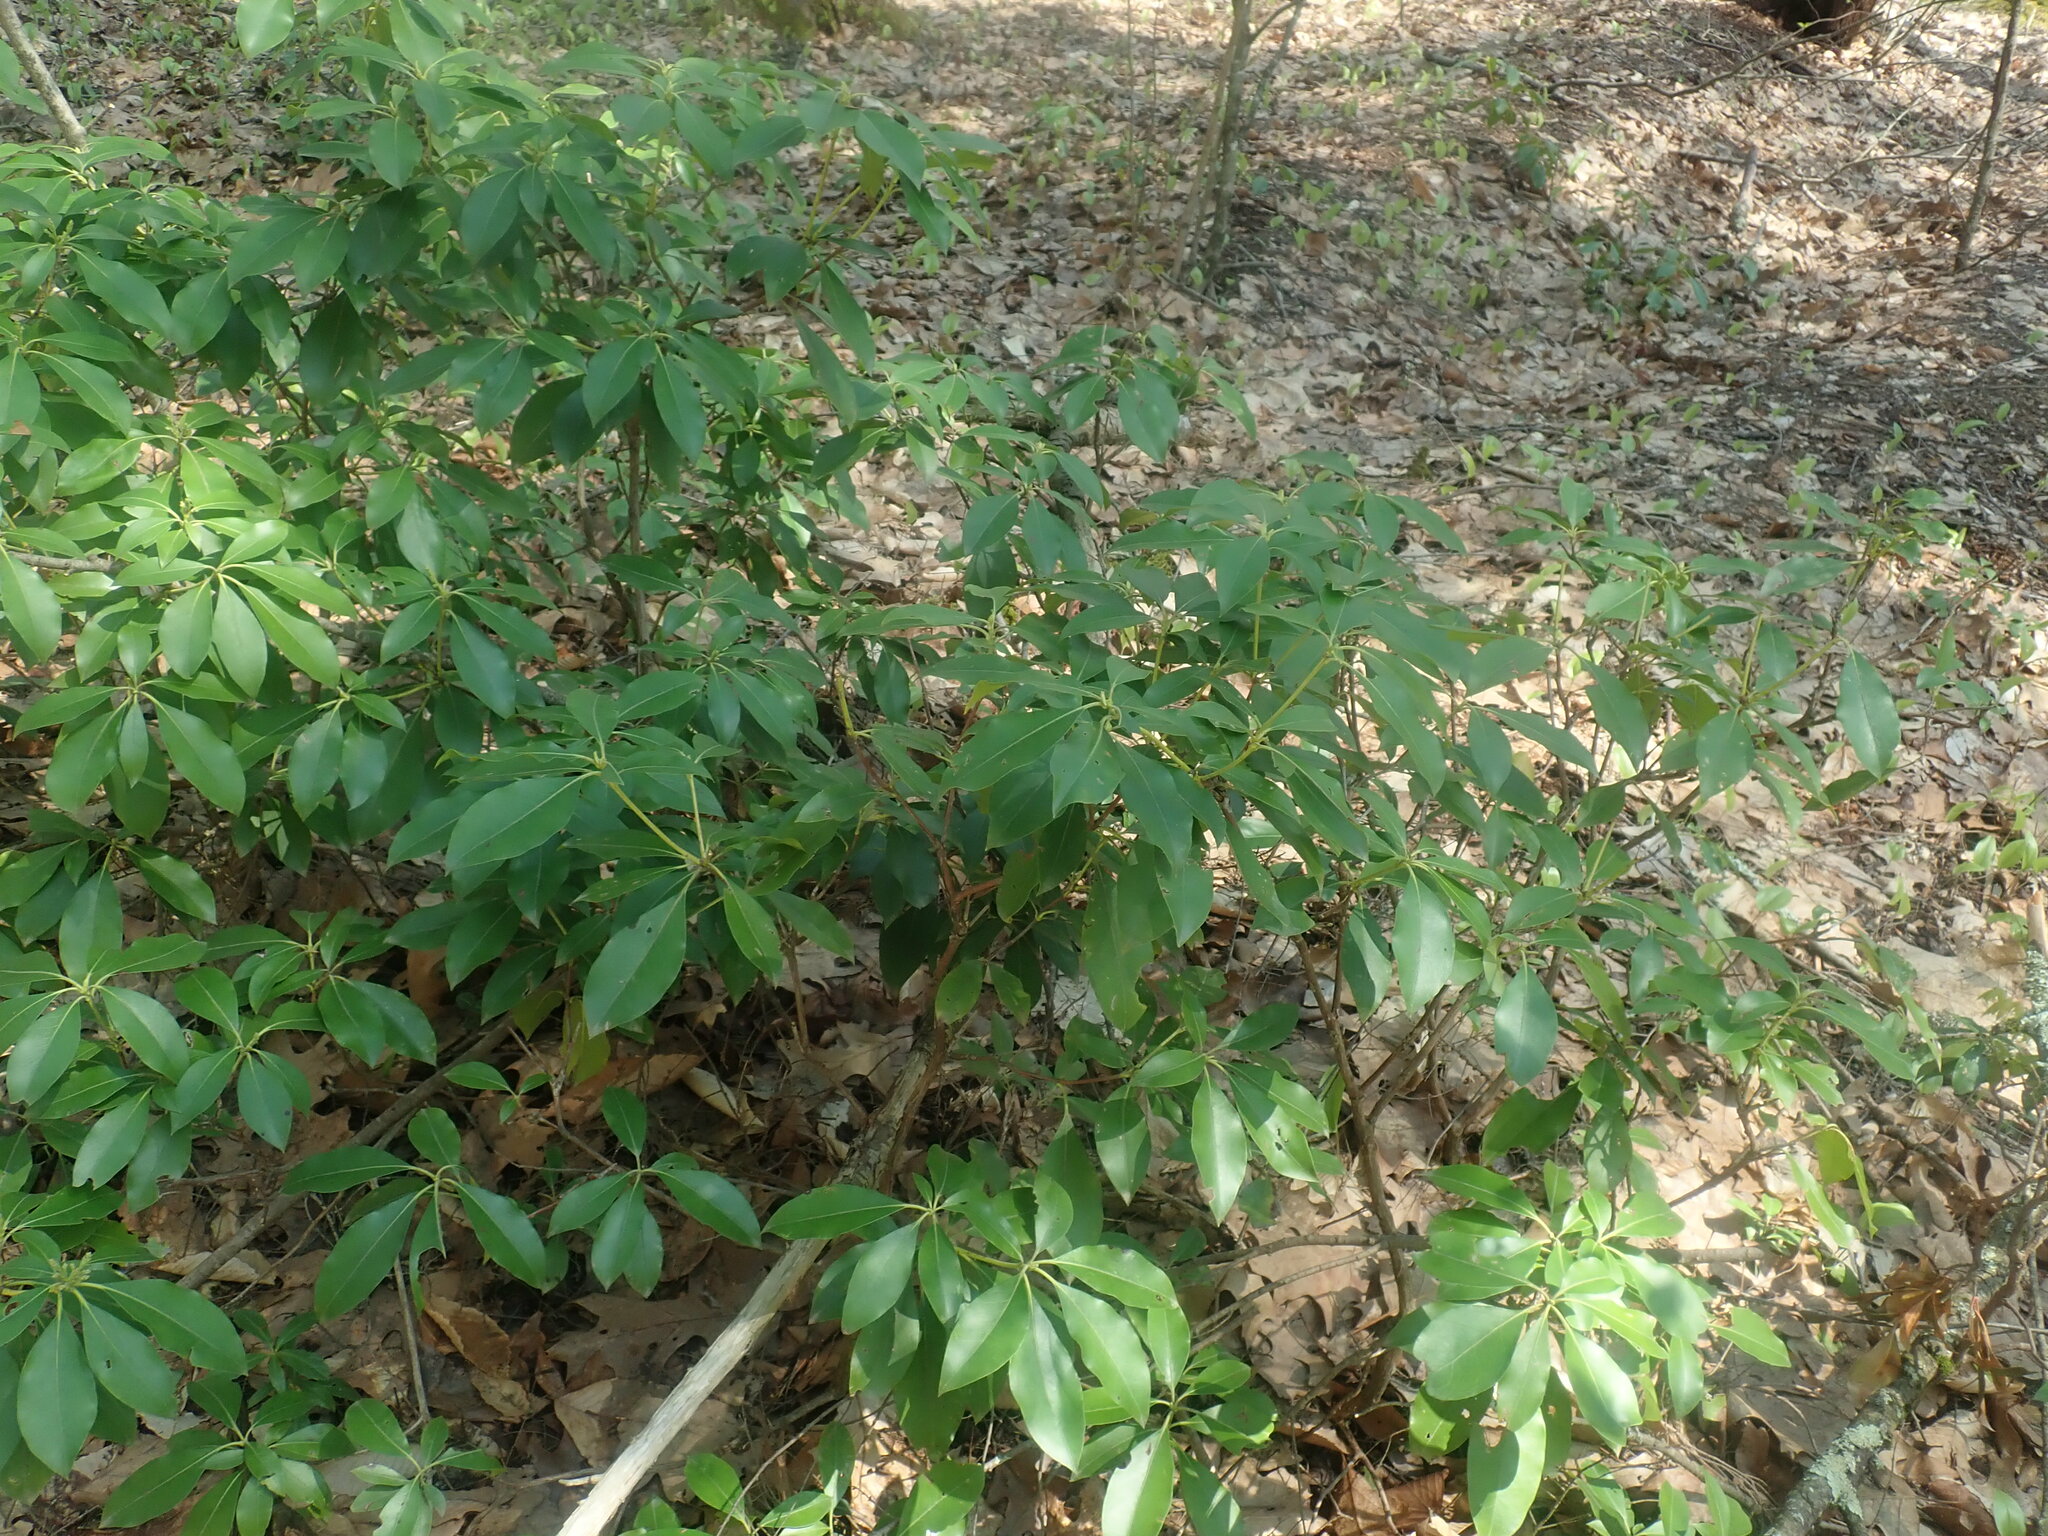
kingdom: Plantae
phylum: Tracheophyta
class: Magnoliopsida
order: Ericales
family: Ericaceae
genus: Kalmia
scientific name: Kalmia latifolia
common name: Mountain-laurel
